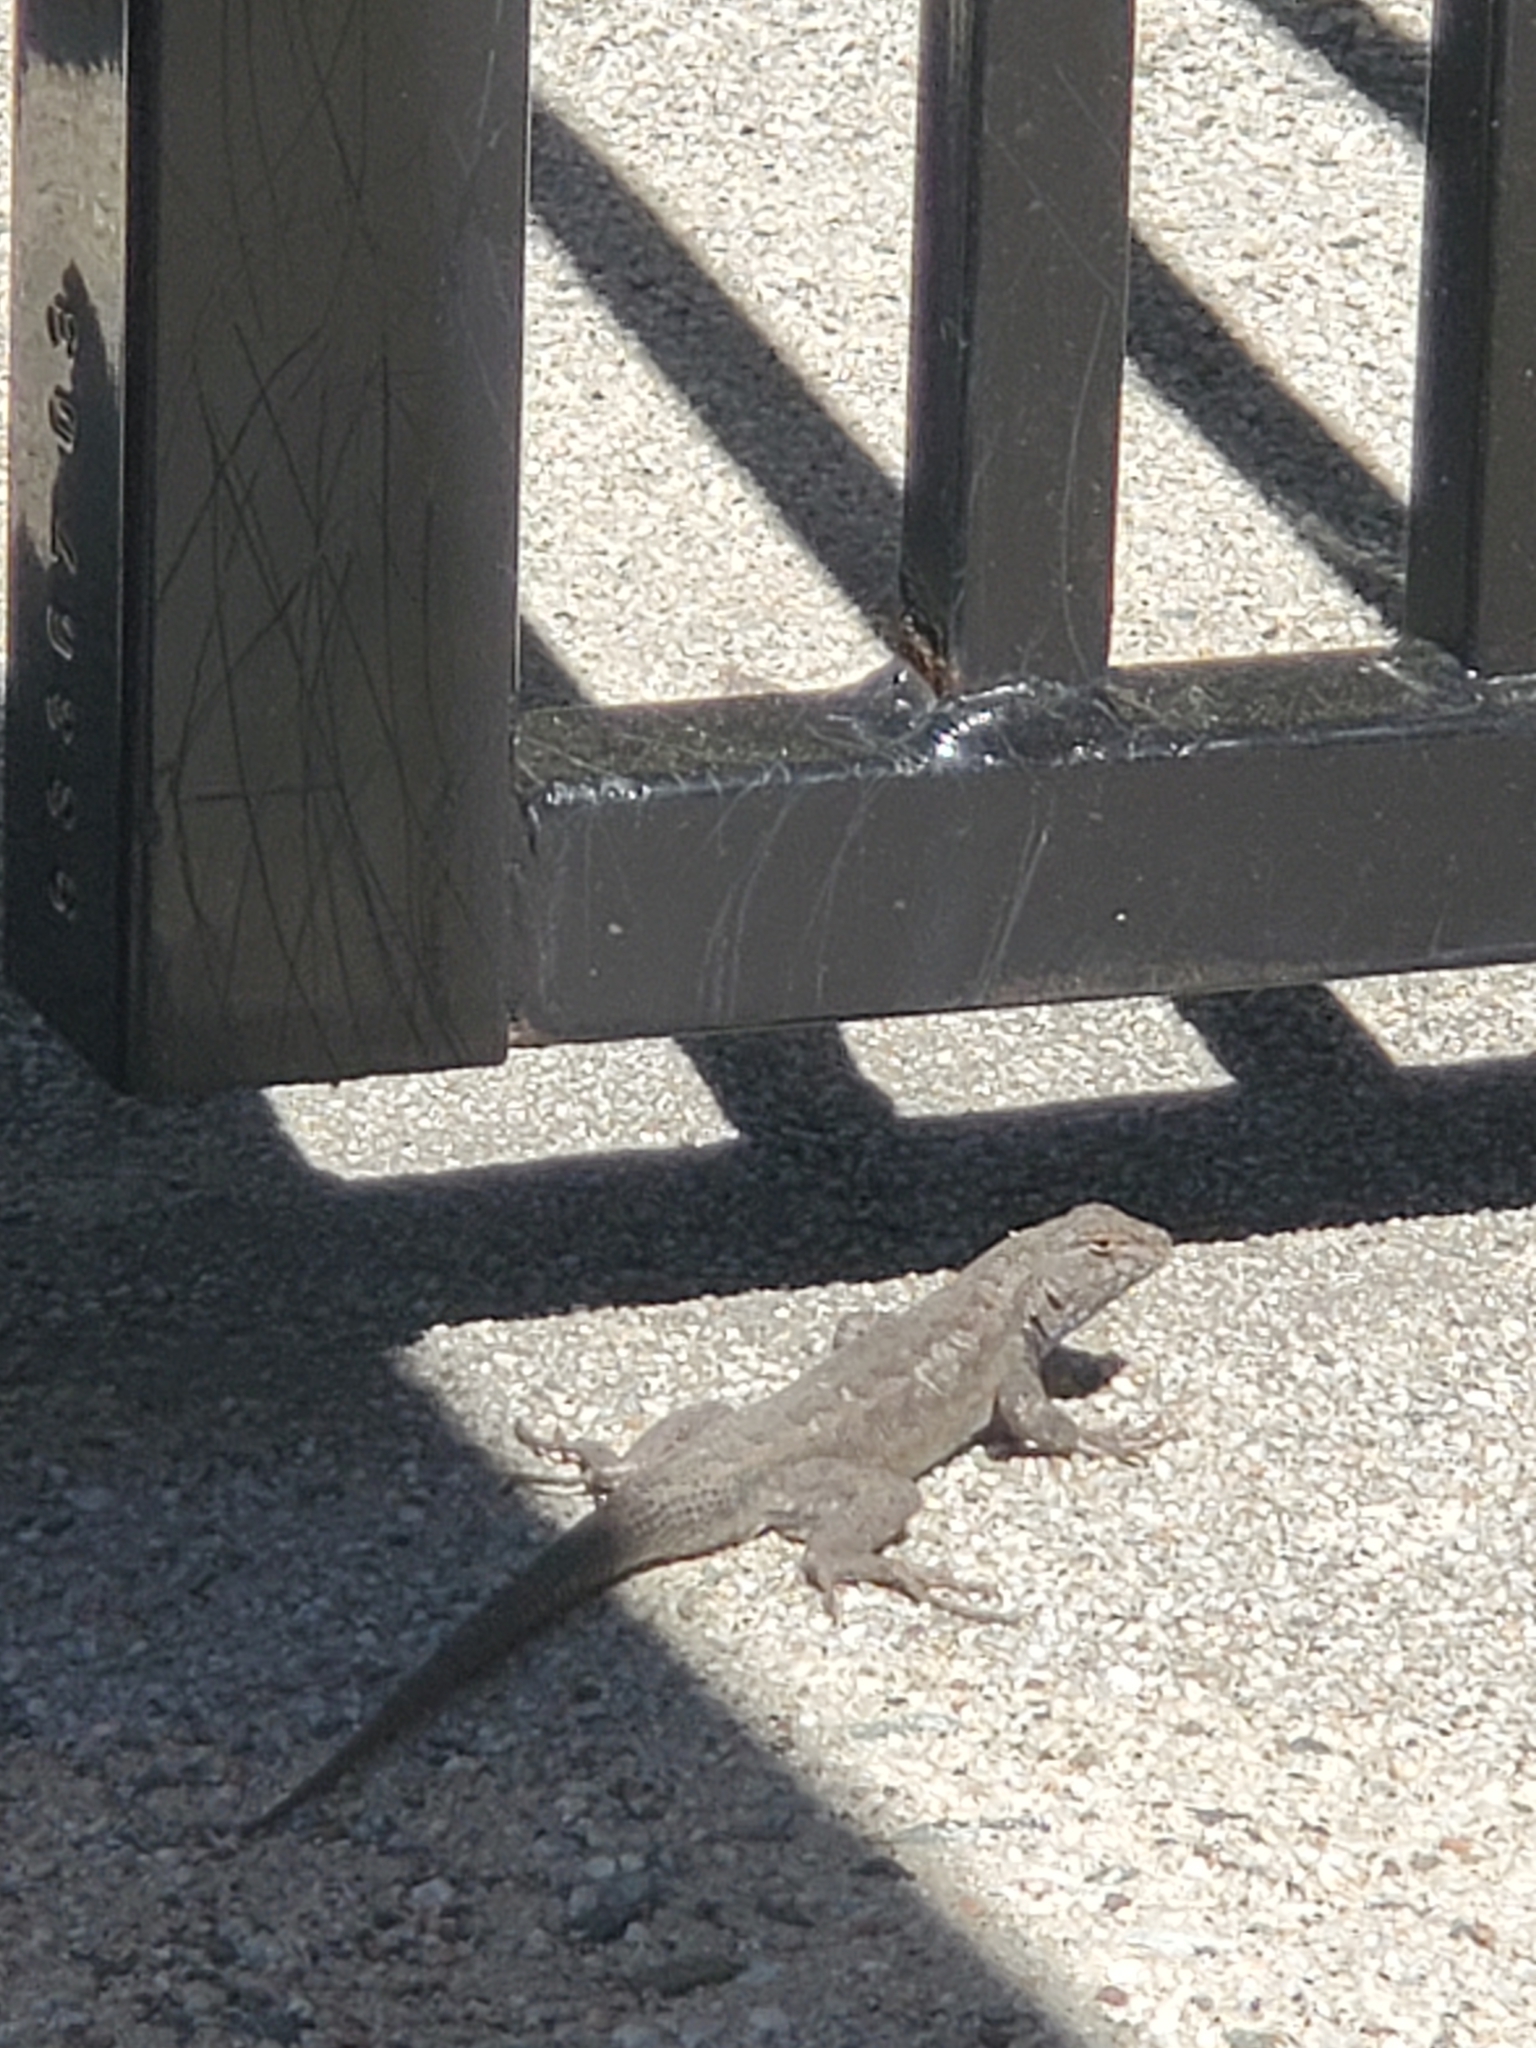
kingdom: Animalia
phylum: Chordata
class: Squamata
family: Phrynosomatidae
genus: Sceloporus
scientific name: Sceloporus occidentalis
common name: Western fence lizard
